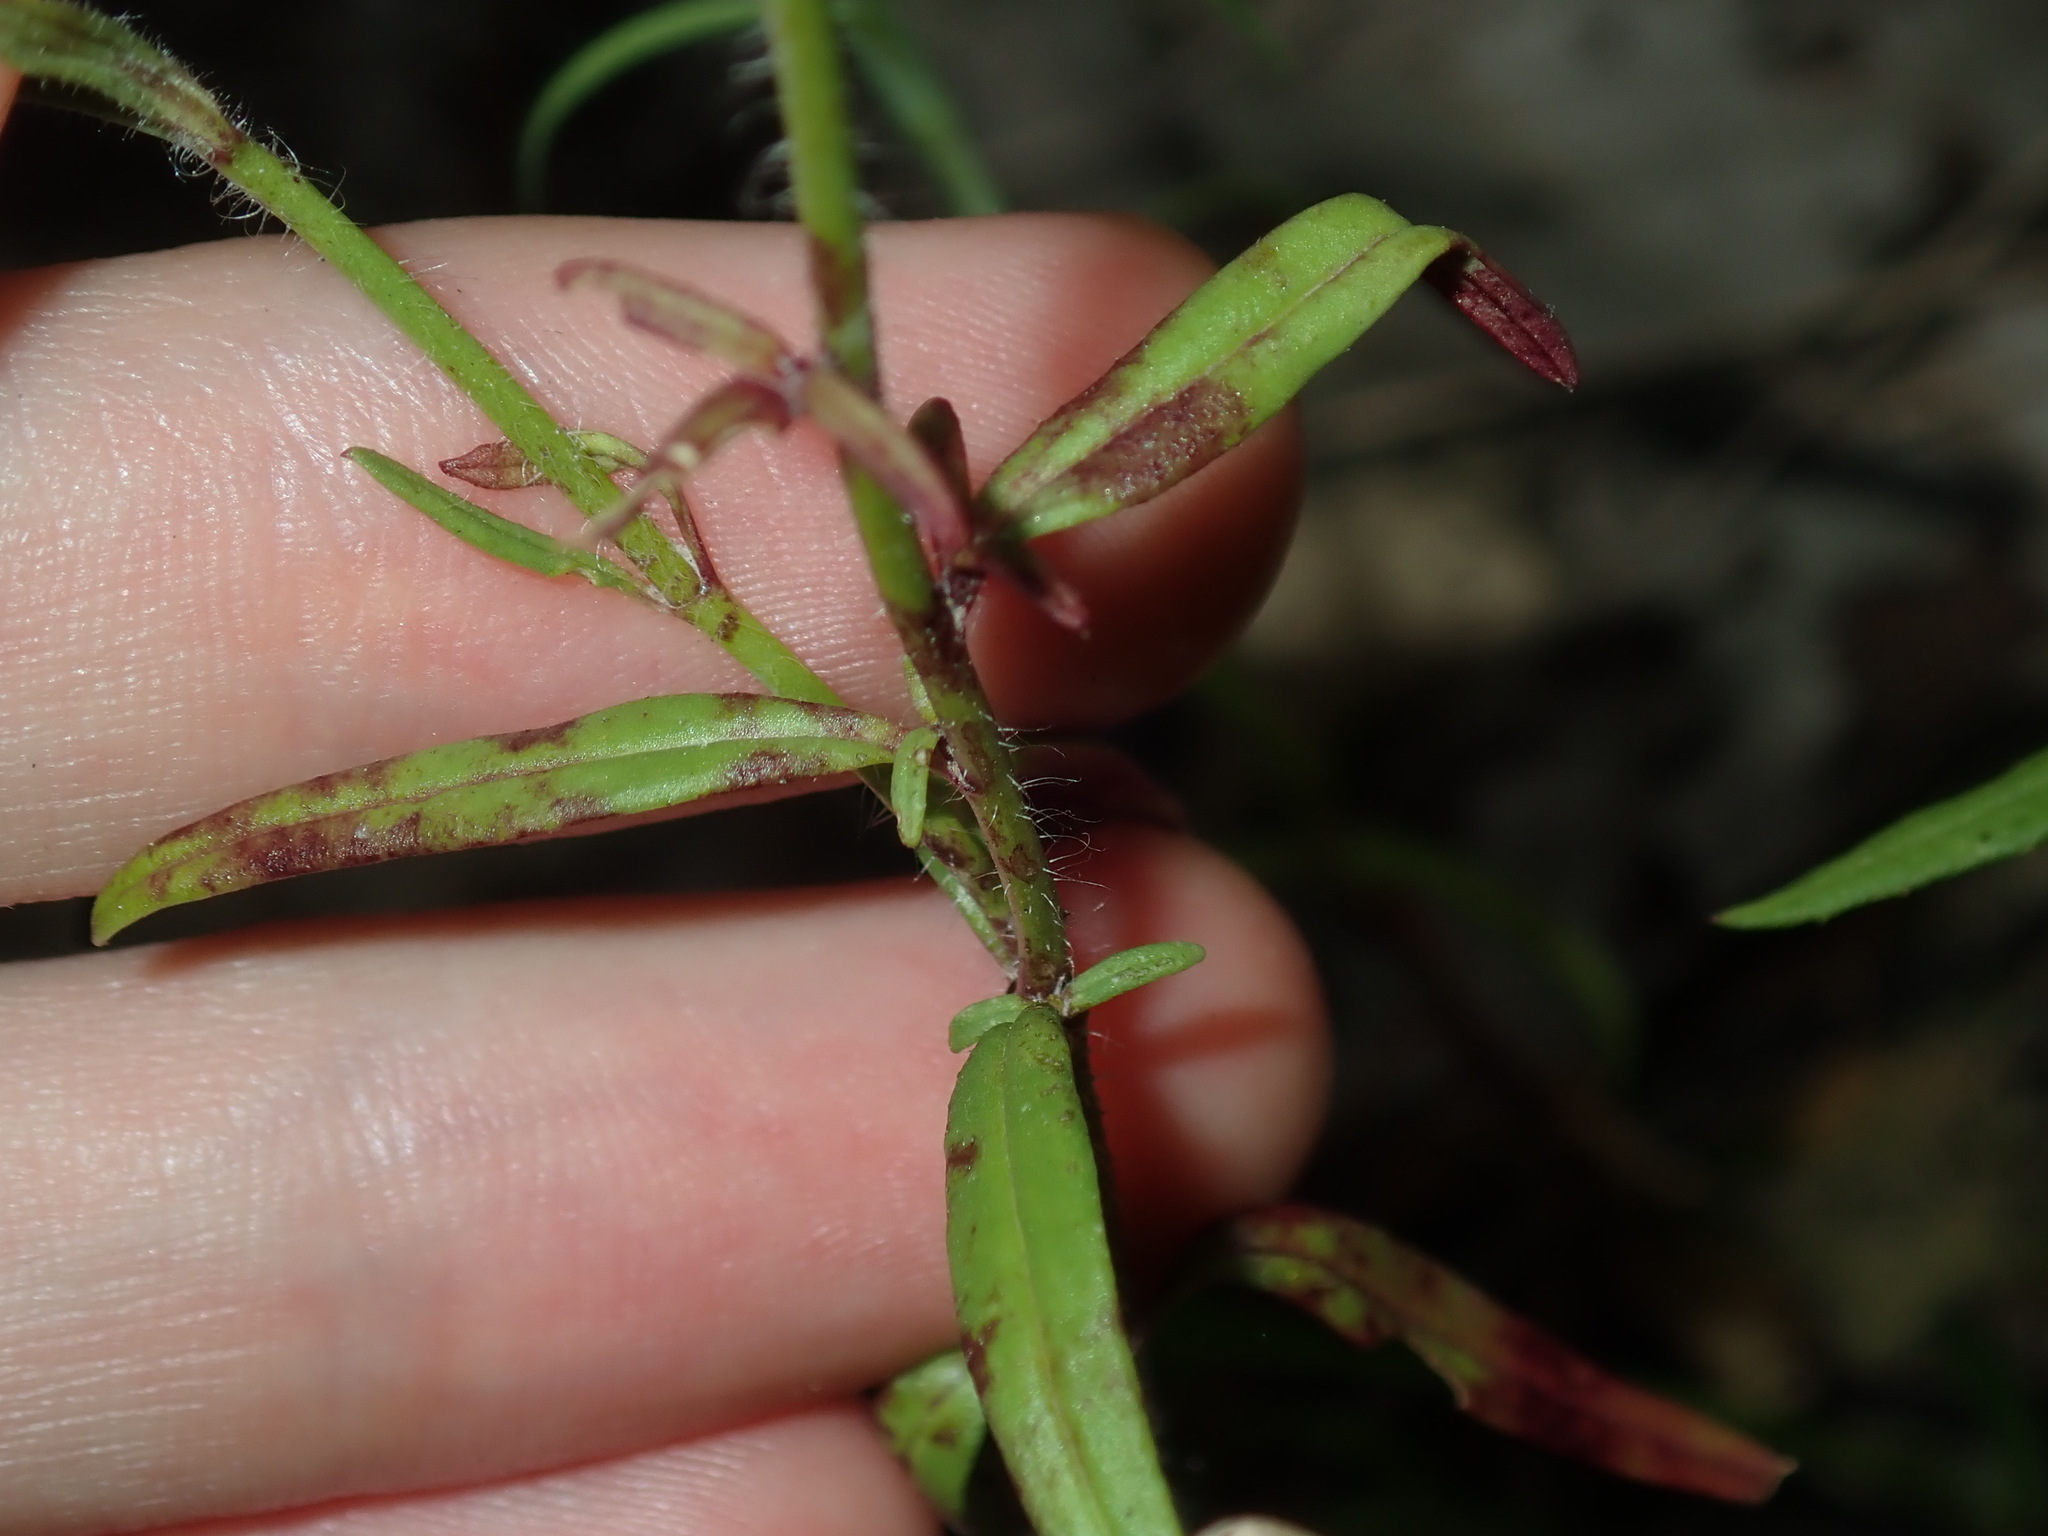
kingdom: Plantae
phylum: Tracheophyta
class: Magnoliopsida
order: Lamiales
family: Plantaginaceae
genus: Misopates
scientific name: Misopates orontium
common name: Weasel's-snout
